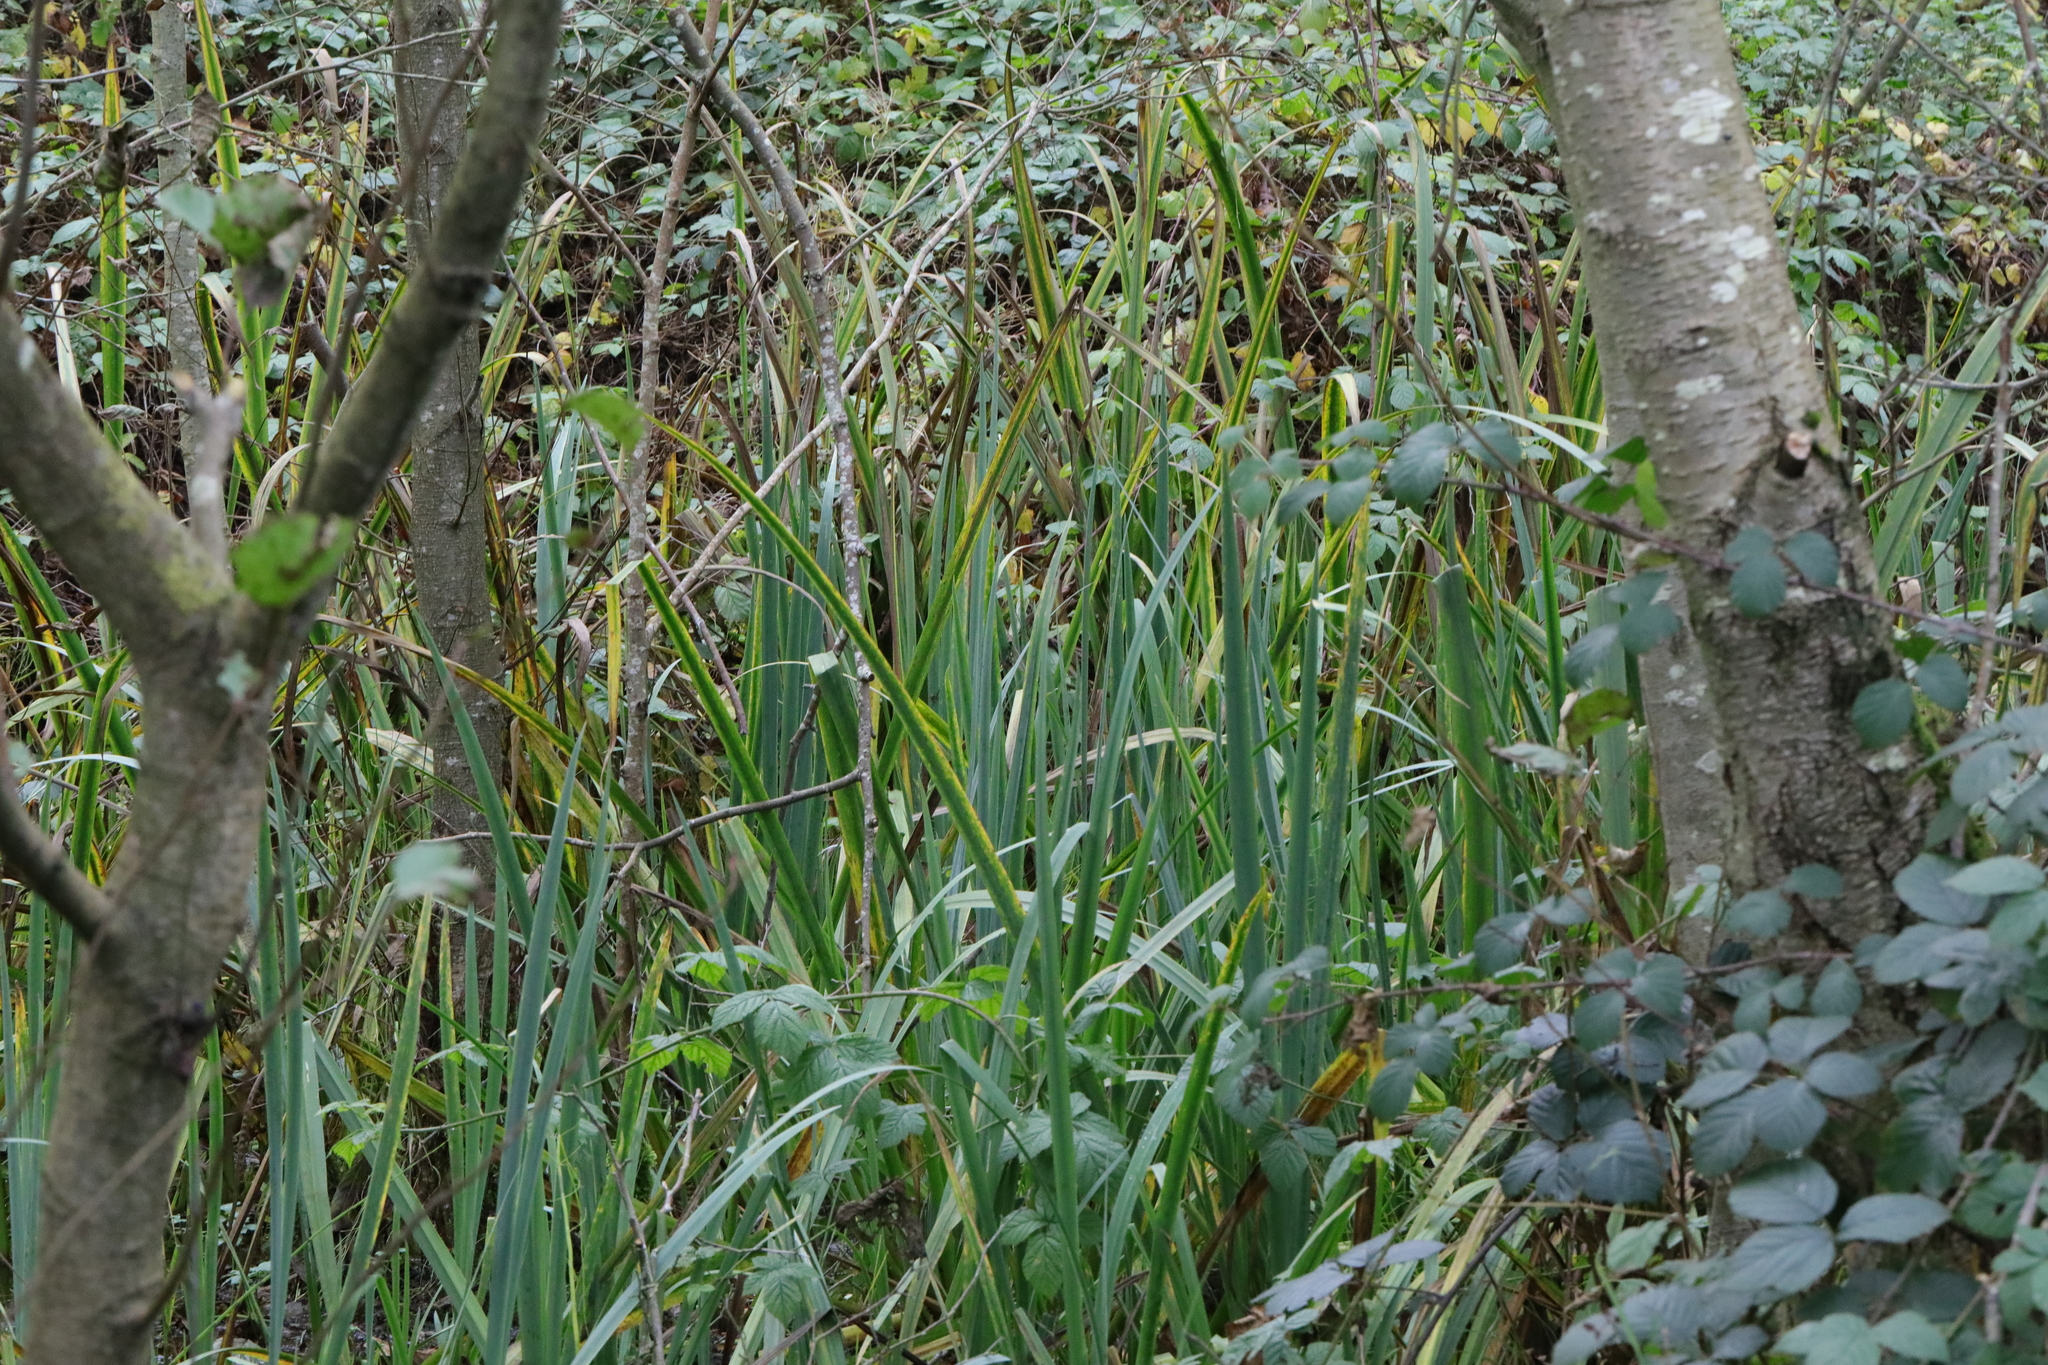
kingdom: Plantae
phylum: Tracheophyta
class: Liliopsida
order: Asparagales
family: Iridaceae
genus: Iris
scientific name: Iris pseudacorus
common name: Yellow flag
